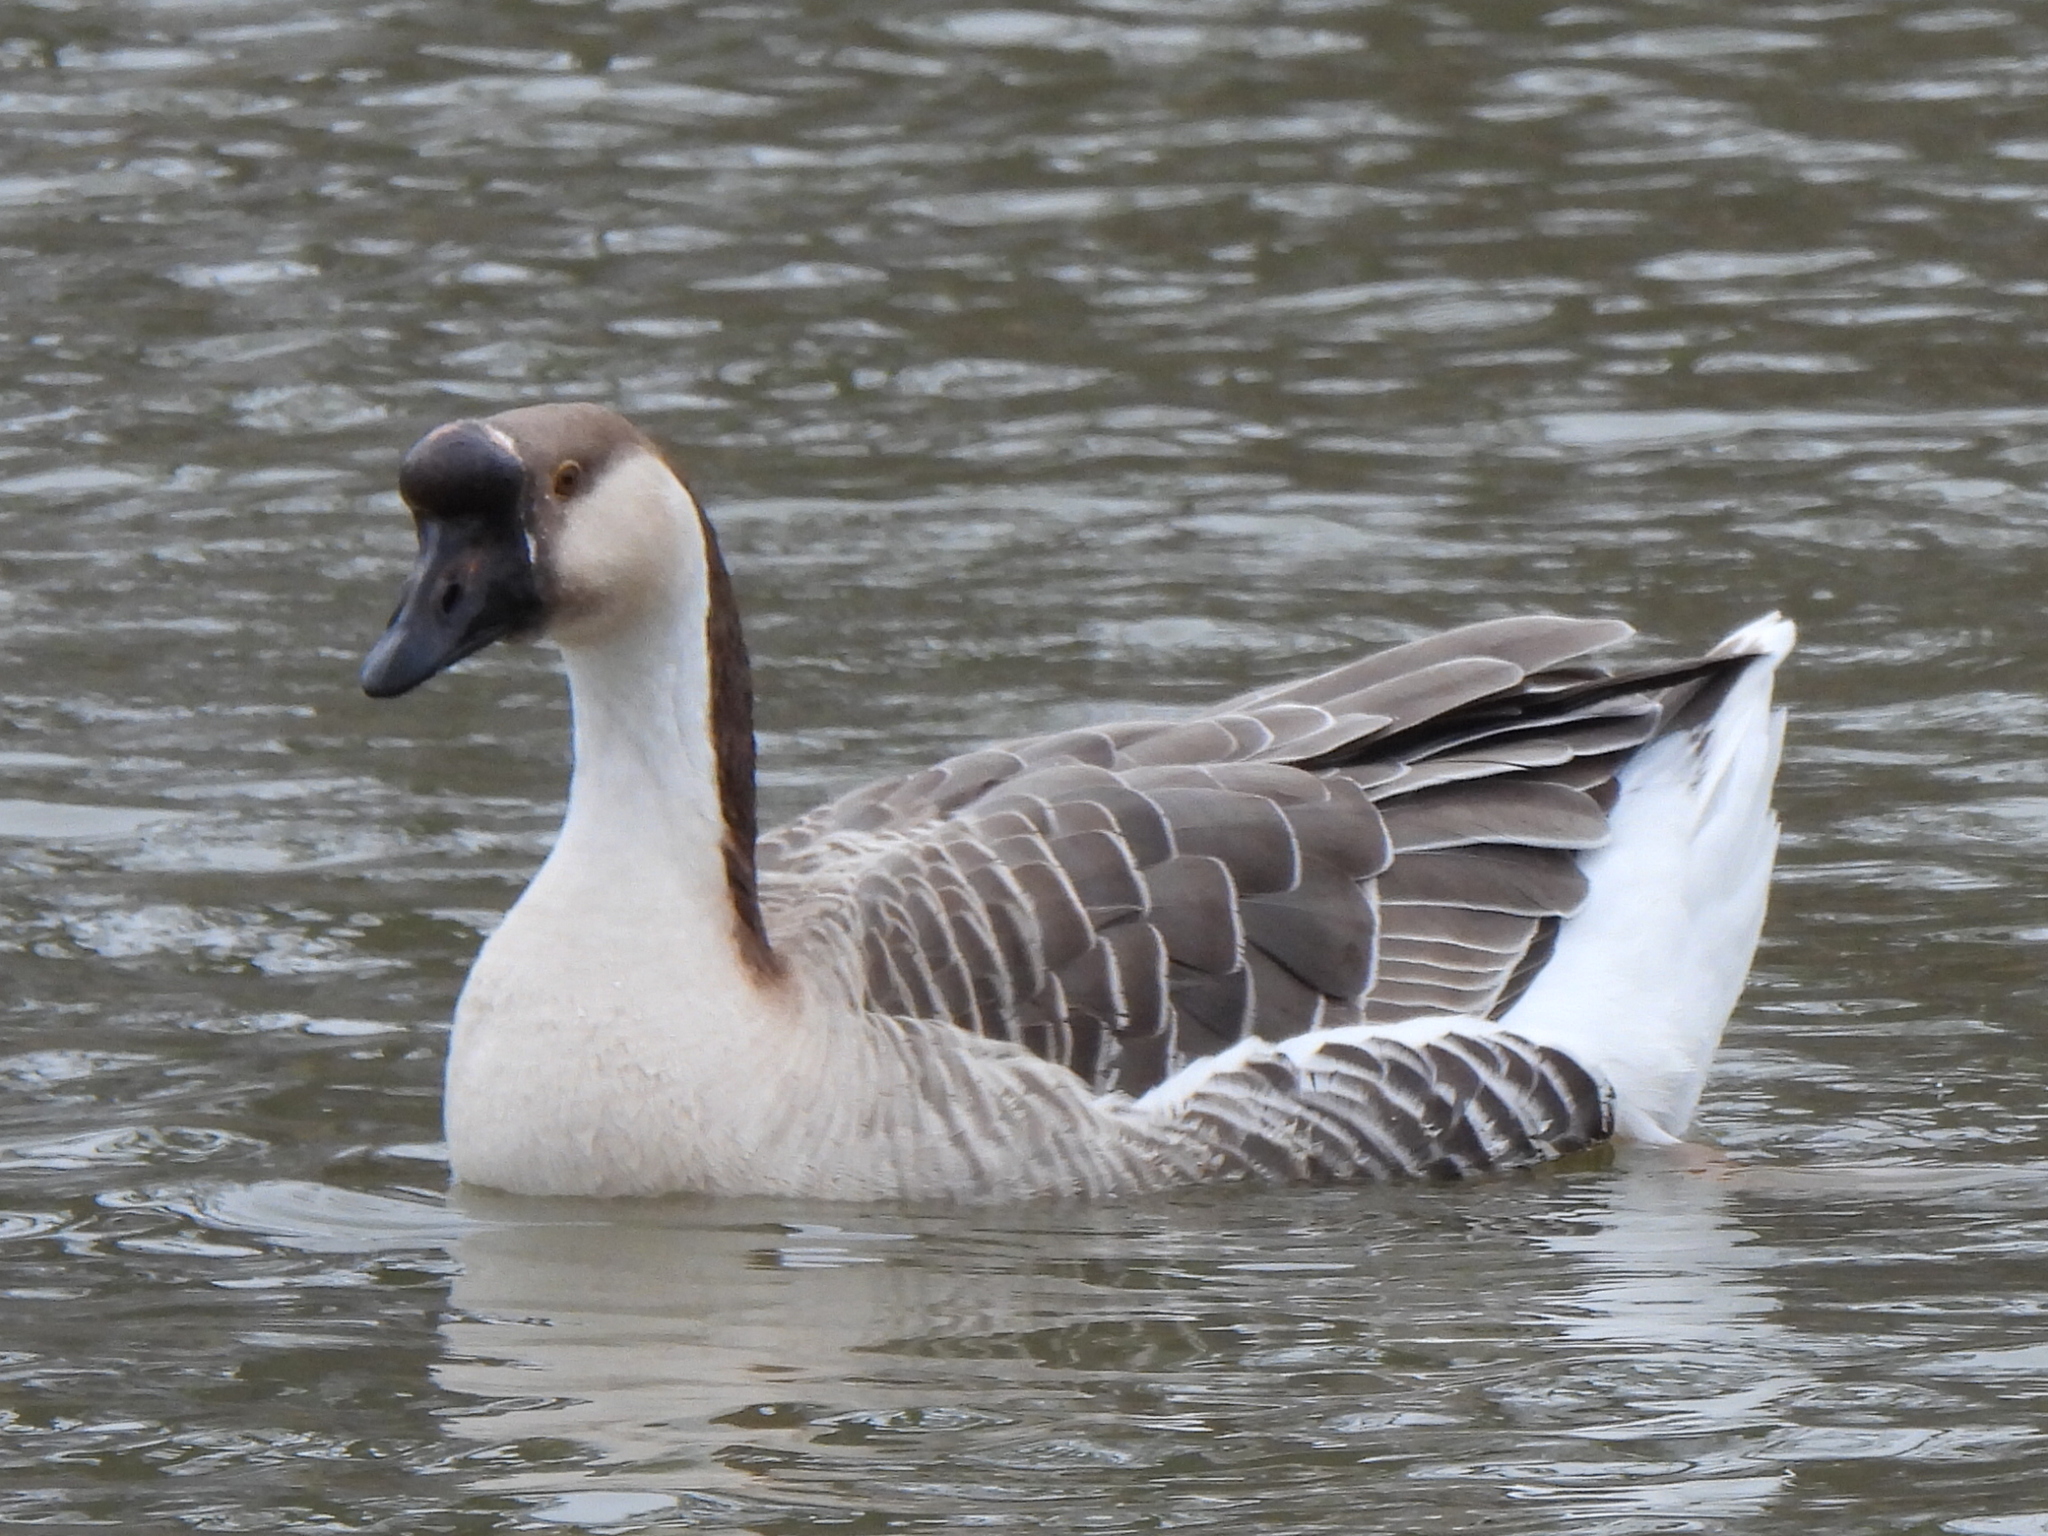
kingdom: Animalia
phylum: Chordata
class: Aves
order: Anseriformes
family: Anatidae
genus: Anser
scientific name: Anser cygnoides
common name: Swan goose
